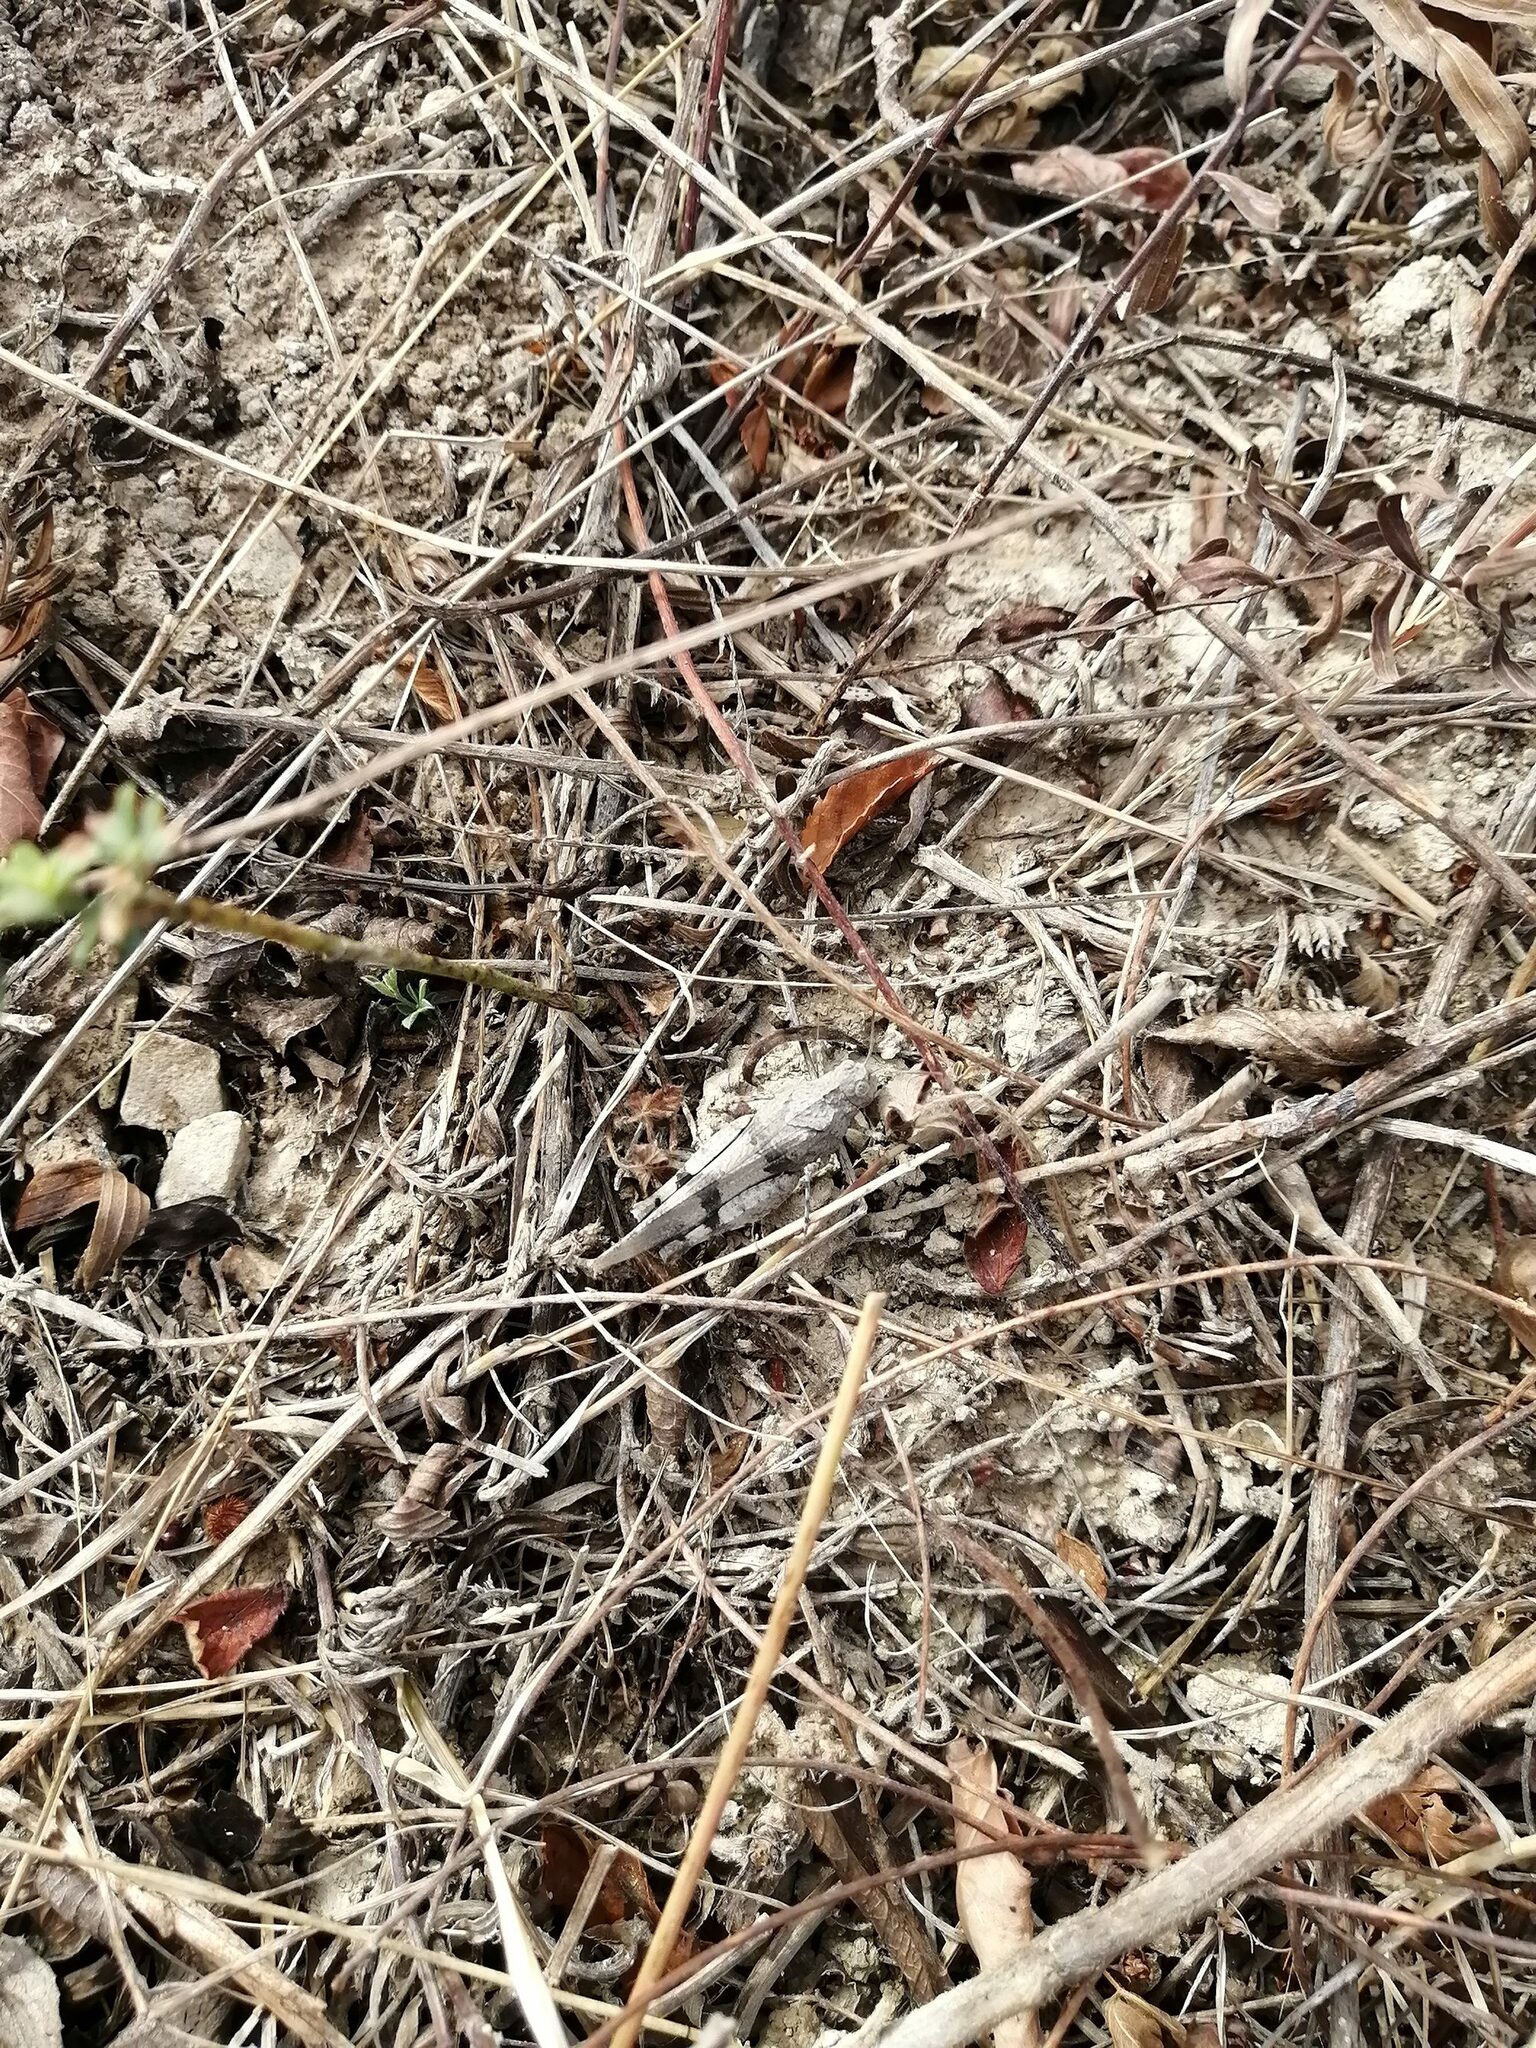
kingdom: Animalia
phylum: Arthropoda
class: Insecta
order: Orthoptera
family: Acrididae
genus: Oedipoda
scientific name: Oedipoda caerulescens
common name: Blue-winged grasshopper
